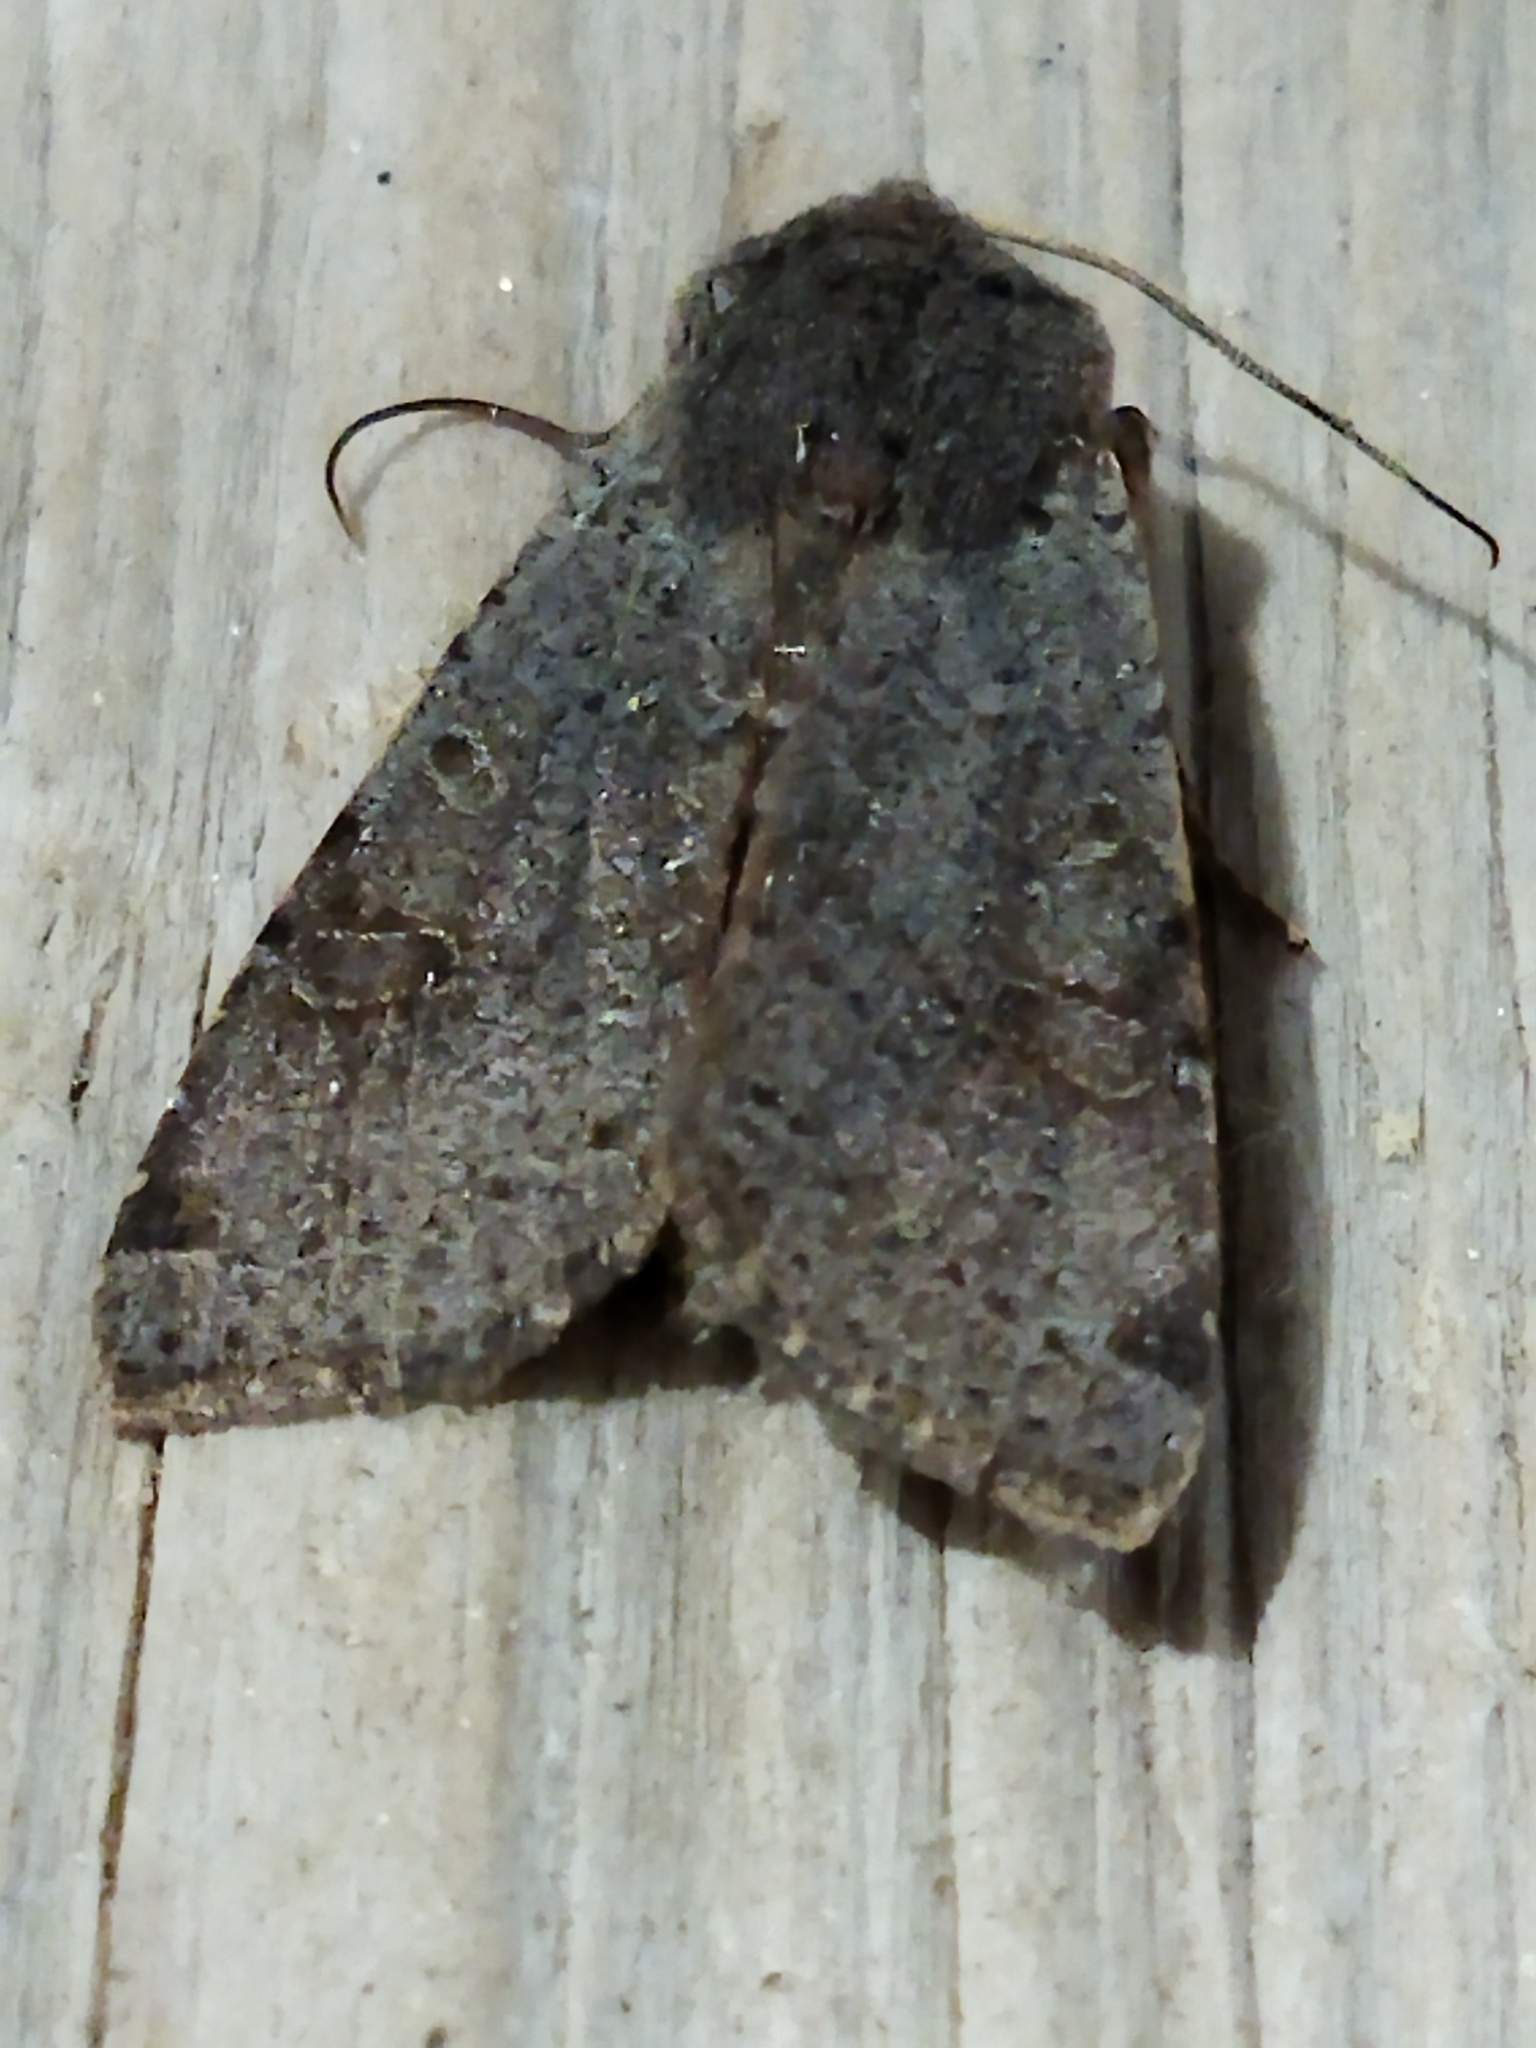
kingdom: Animalia
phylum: Arthropoda
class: Insecta
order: Lepidoptera
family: Noctuidae
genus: Agrochola
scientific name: Agrochola lychnidis
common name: Beaded chestnut
